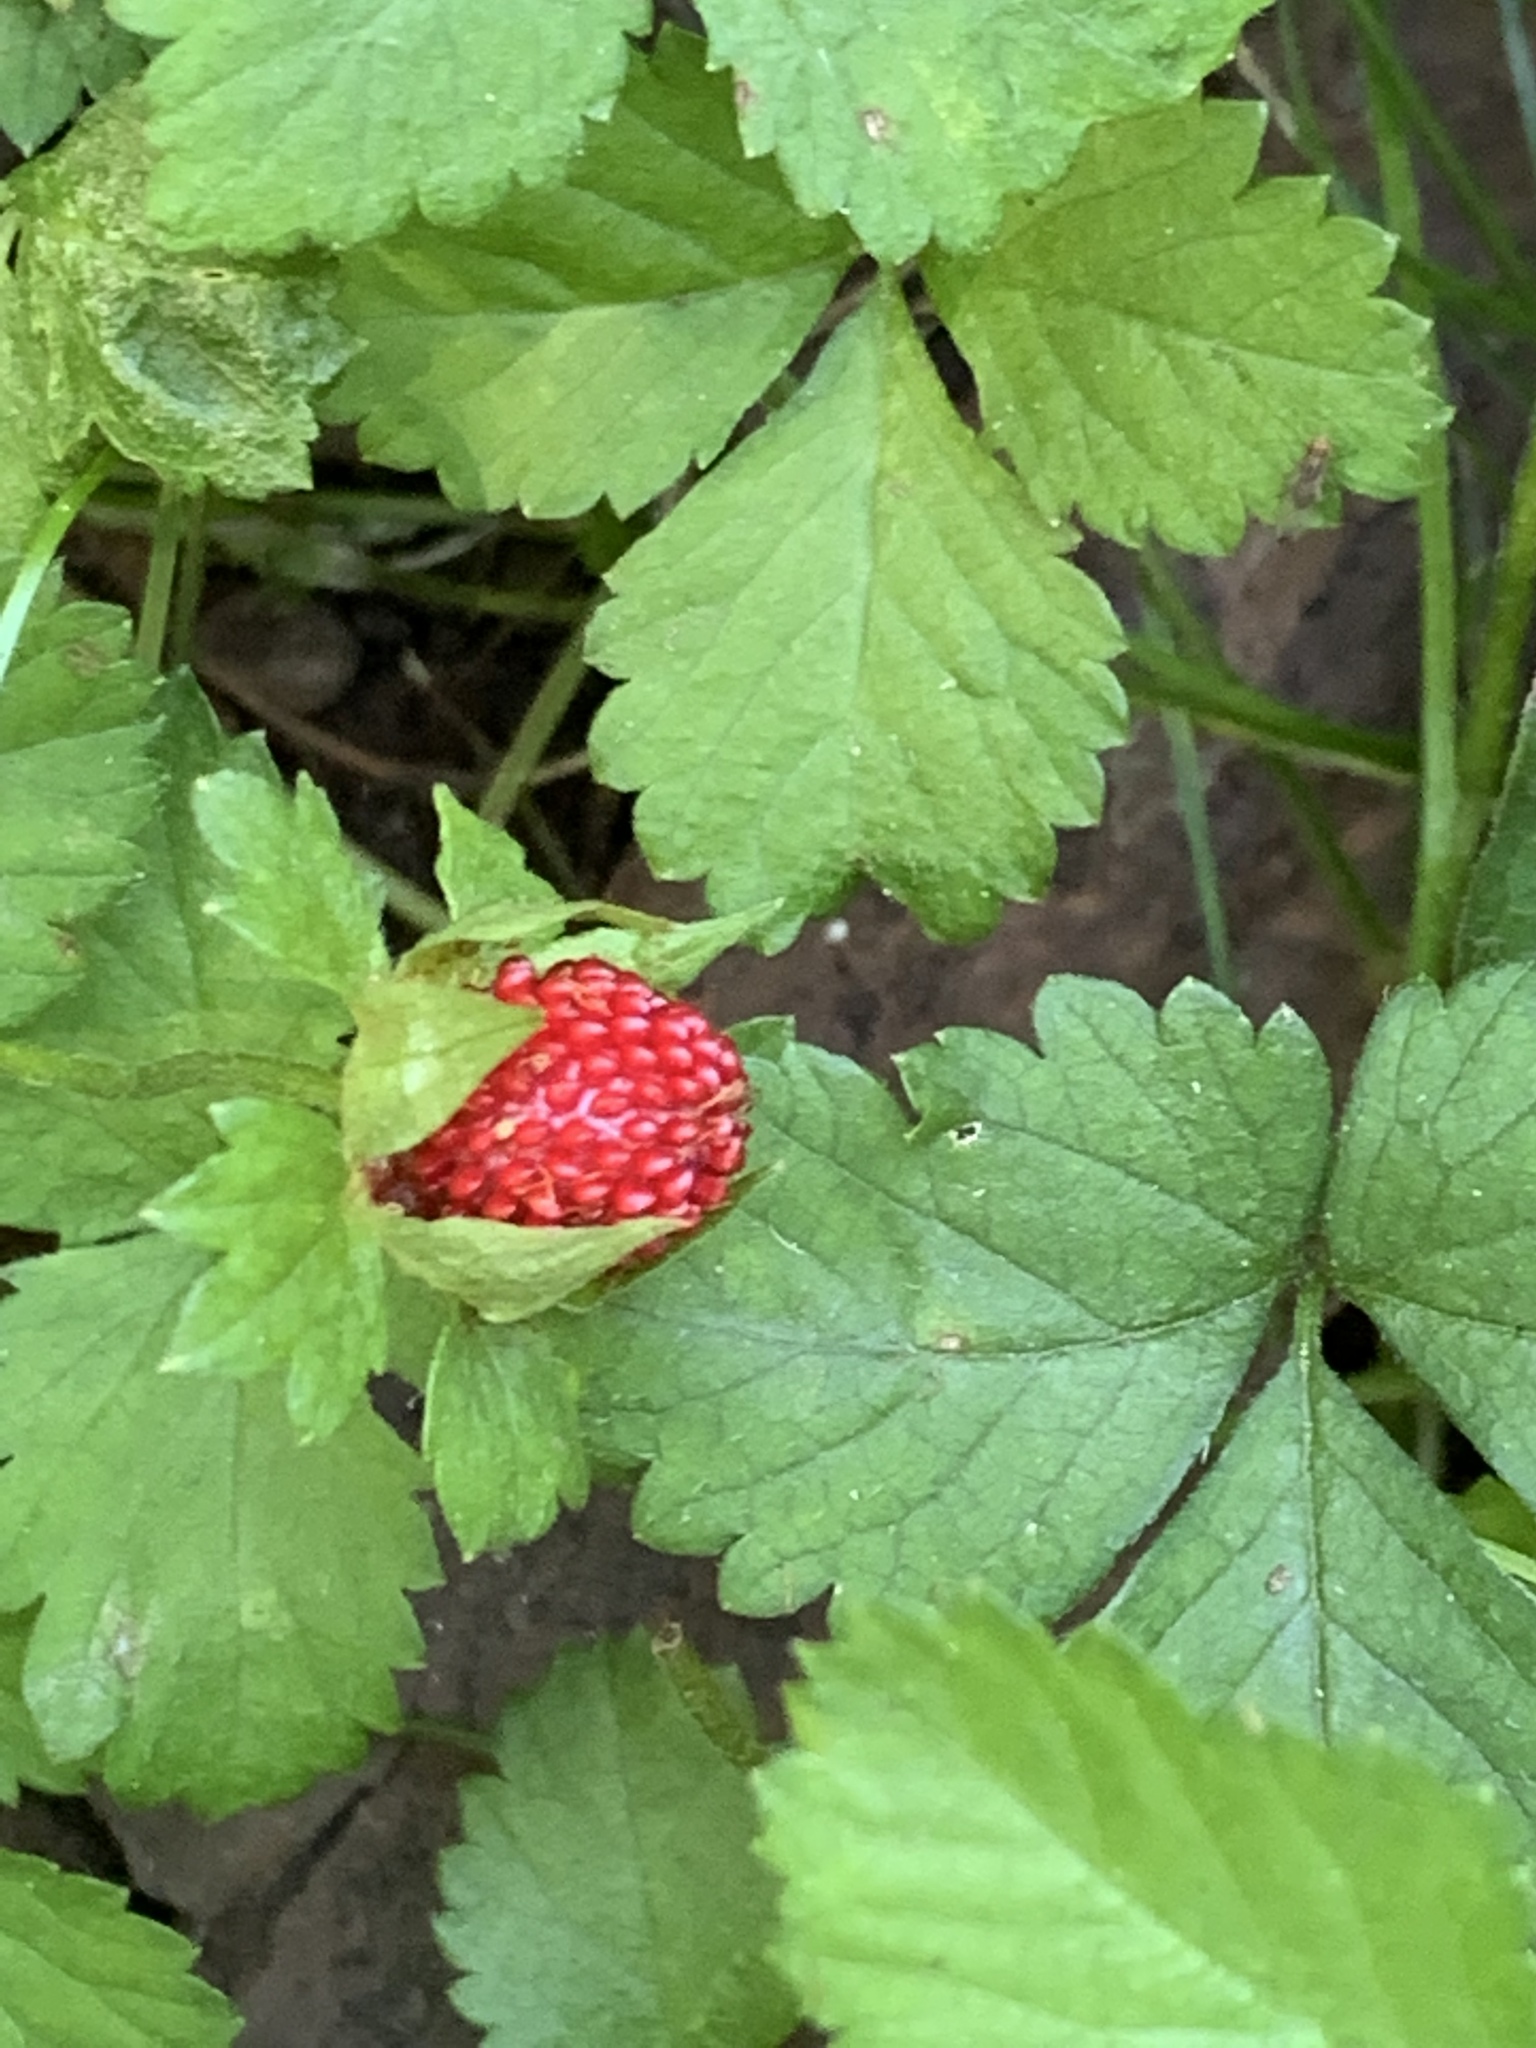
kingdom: Plantae
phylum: Tracheophyta
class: Magnoliopsida
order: Rosales
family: Rosaceae
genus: Potentilla
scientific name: Potentilla indica
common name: Yellow-flowered strawberry
